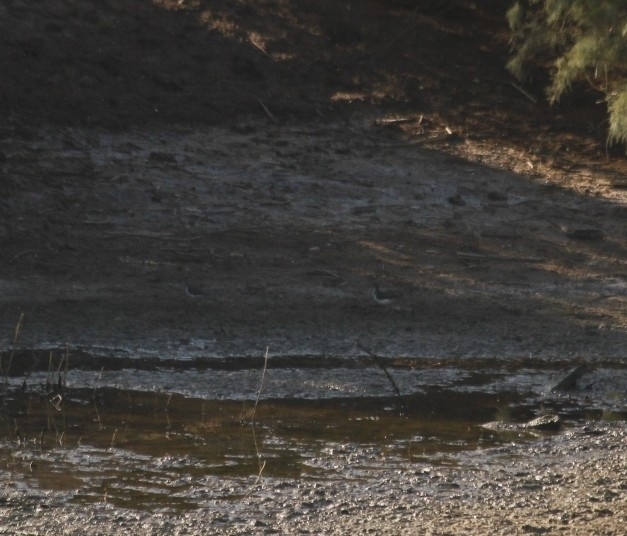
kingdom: Animalia
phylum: Chordata
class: Aves
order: Charadriiformes
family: Scolopacidae
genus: Actitis
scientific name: Actitis macularius
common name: Spotted sandpiper
